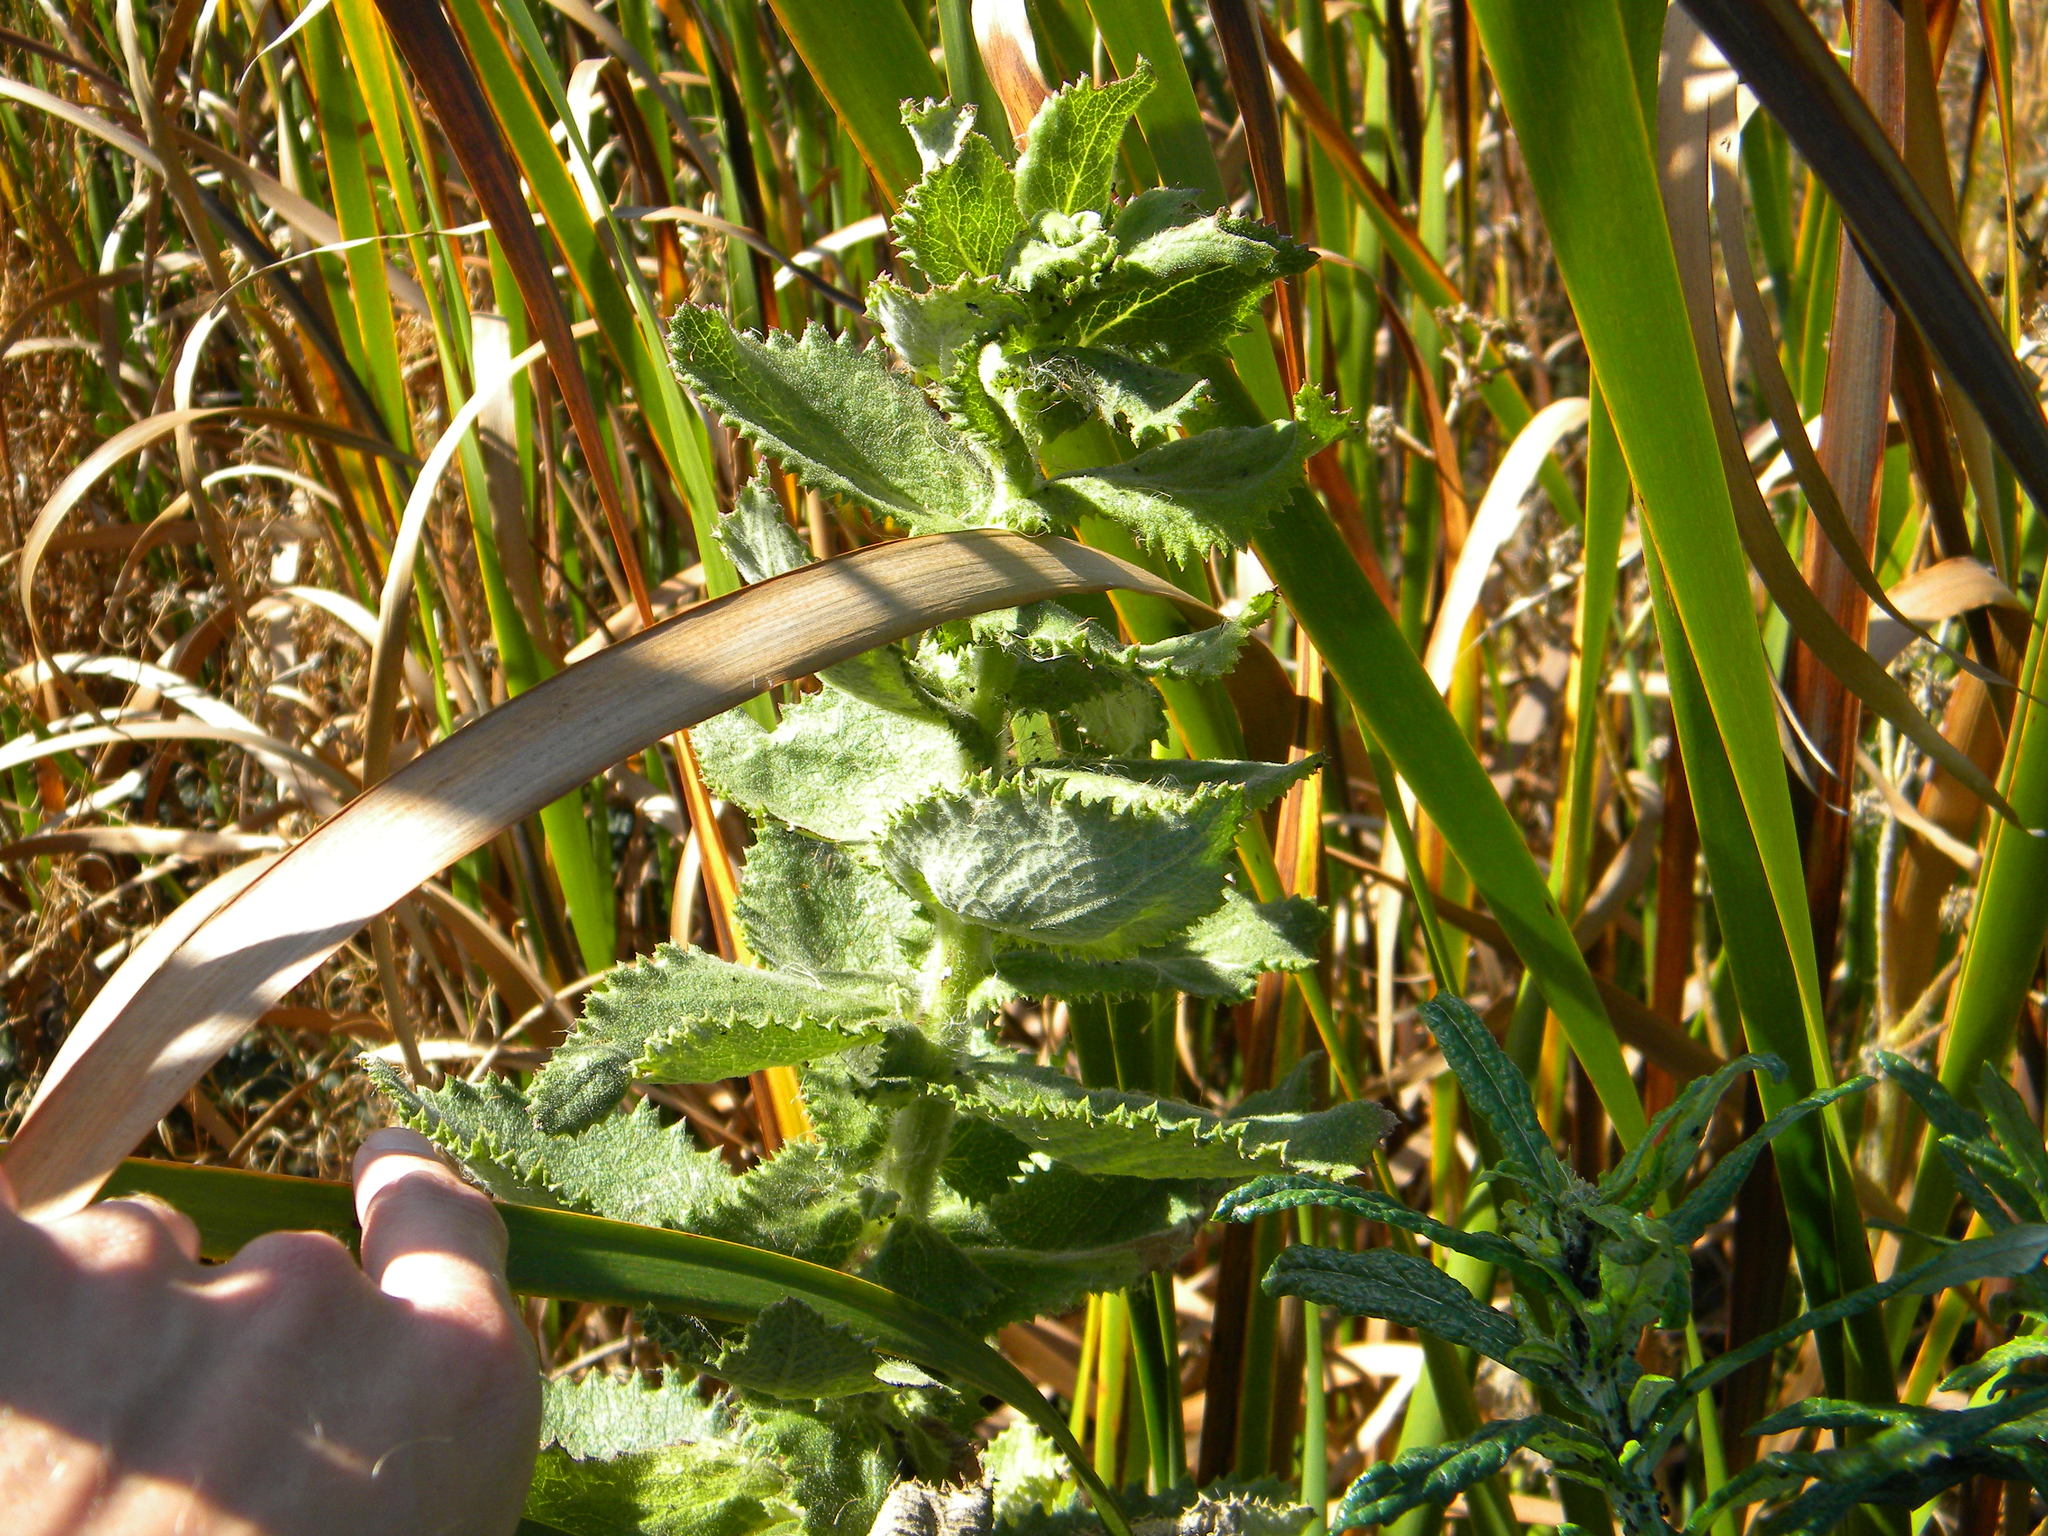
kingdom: Plantae
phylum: Tracheophyta
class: Magnoliopsida
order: Asterales
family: Asteraceae
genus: Senecio
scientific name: Senecio rigidus
